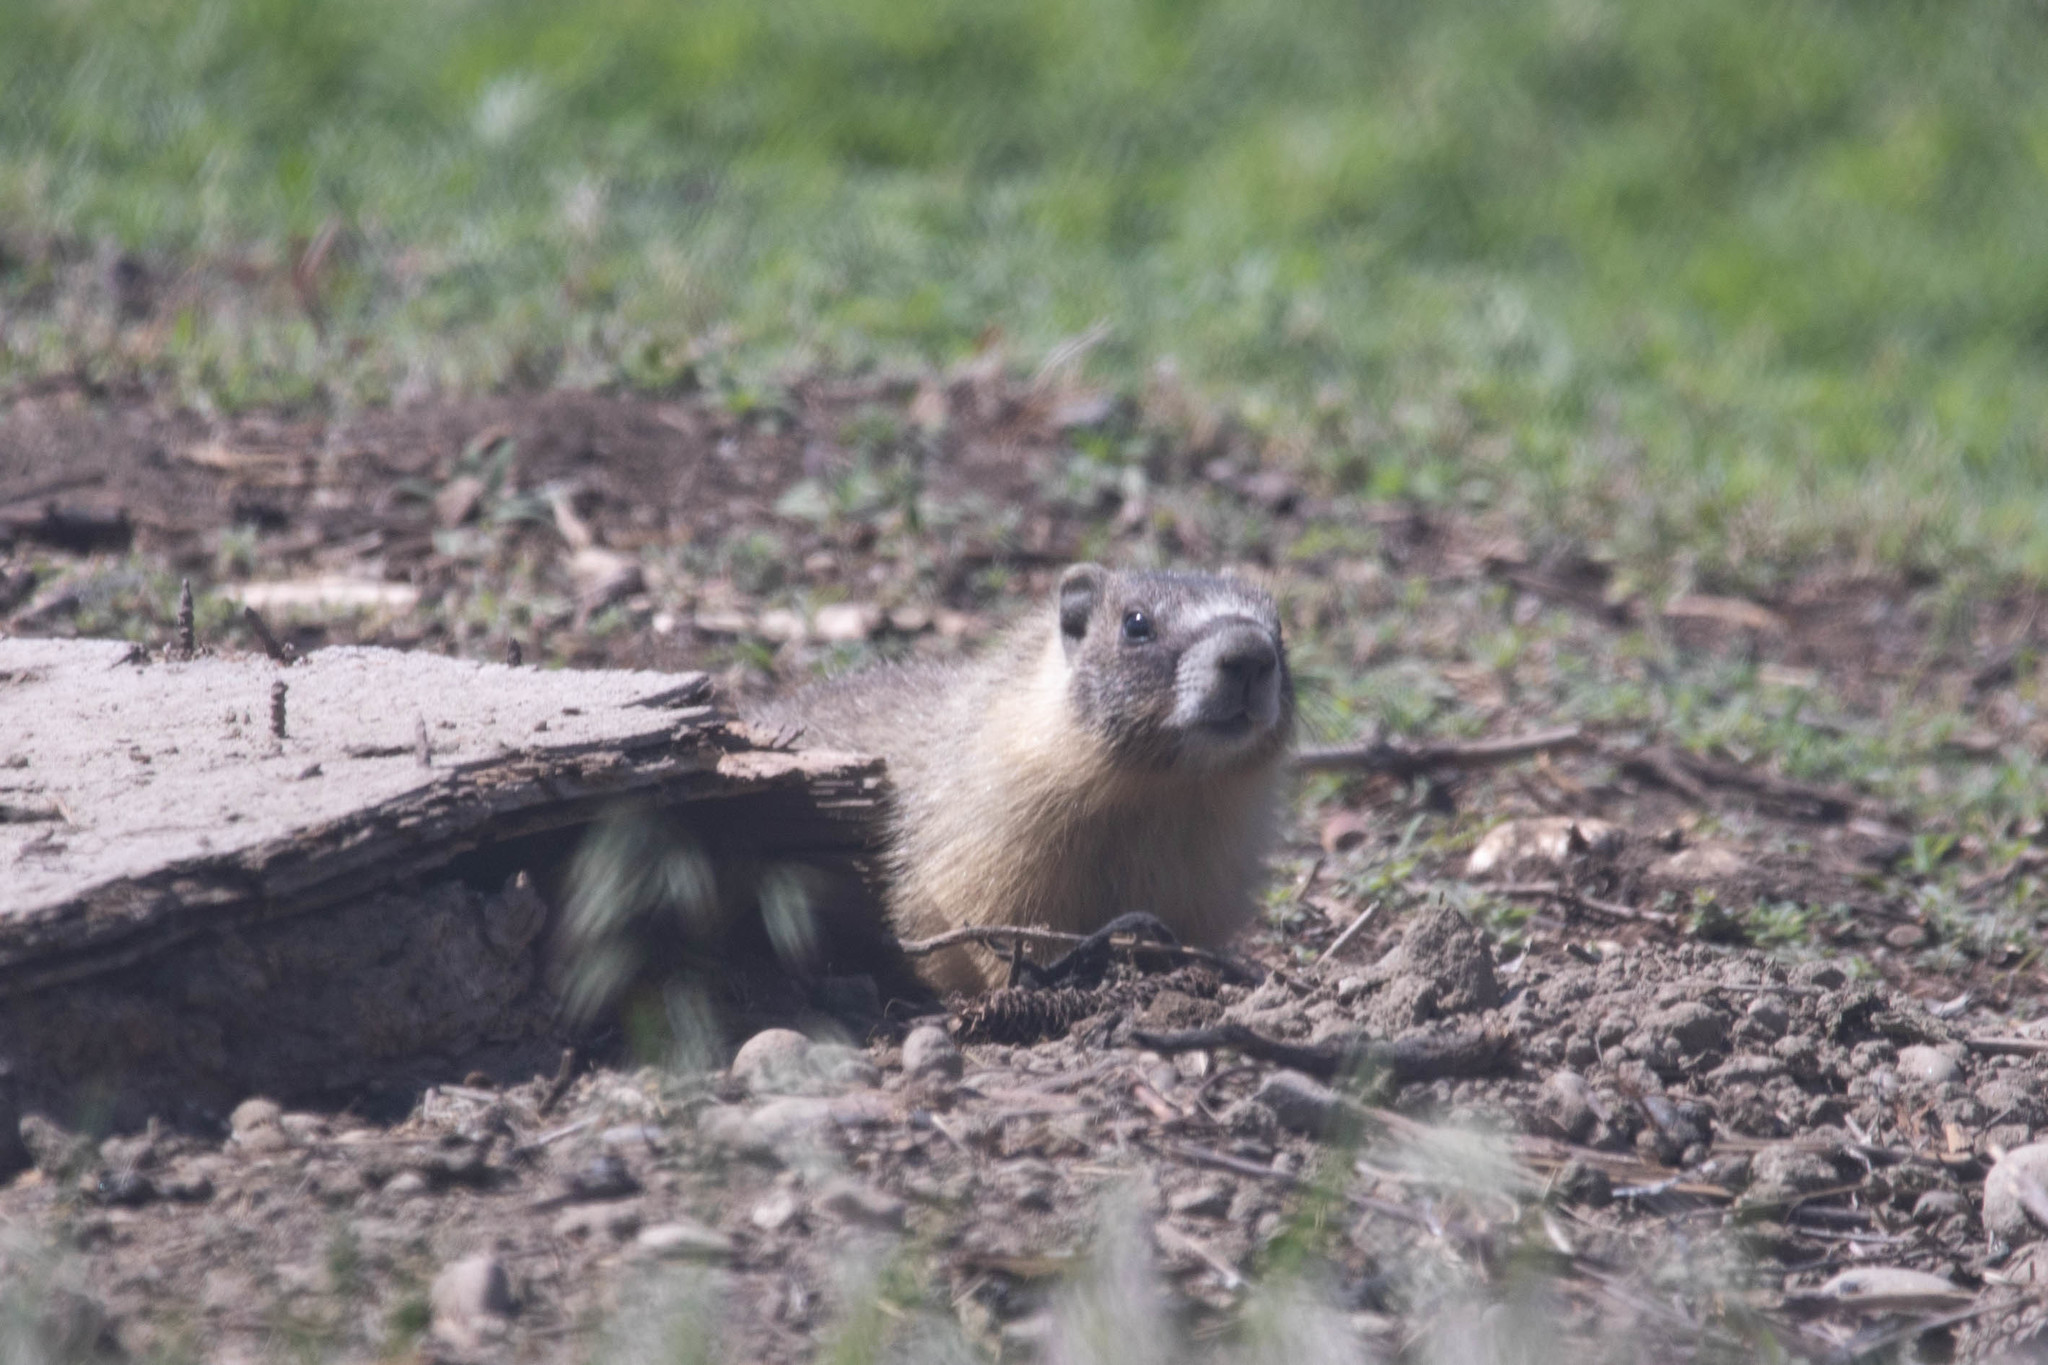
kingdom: Animalia
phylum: Chordata
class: Mammalia
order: Rodentia
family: Sciuridae
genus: Marmota
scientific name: Marmota flaviventris
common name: Yellow-bellied marmot
